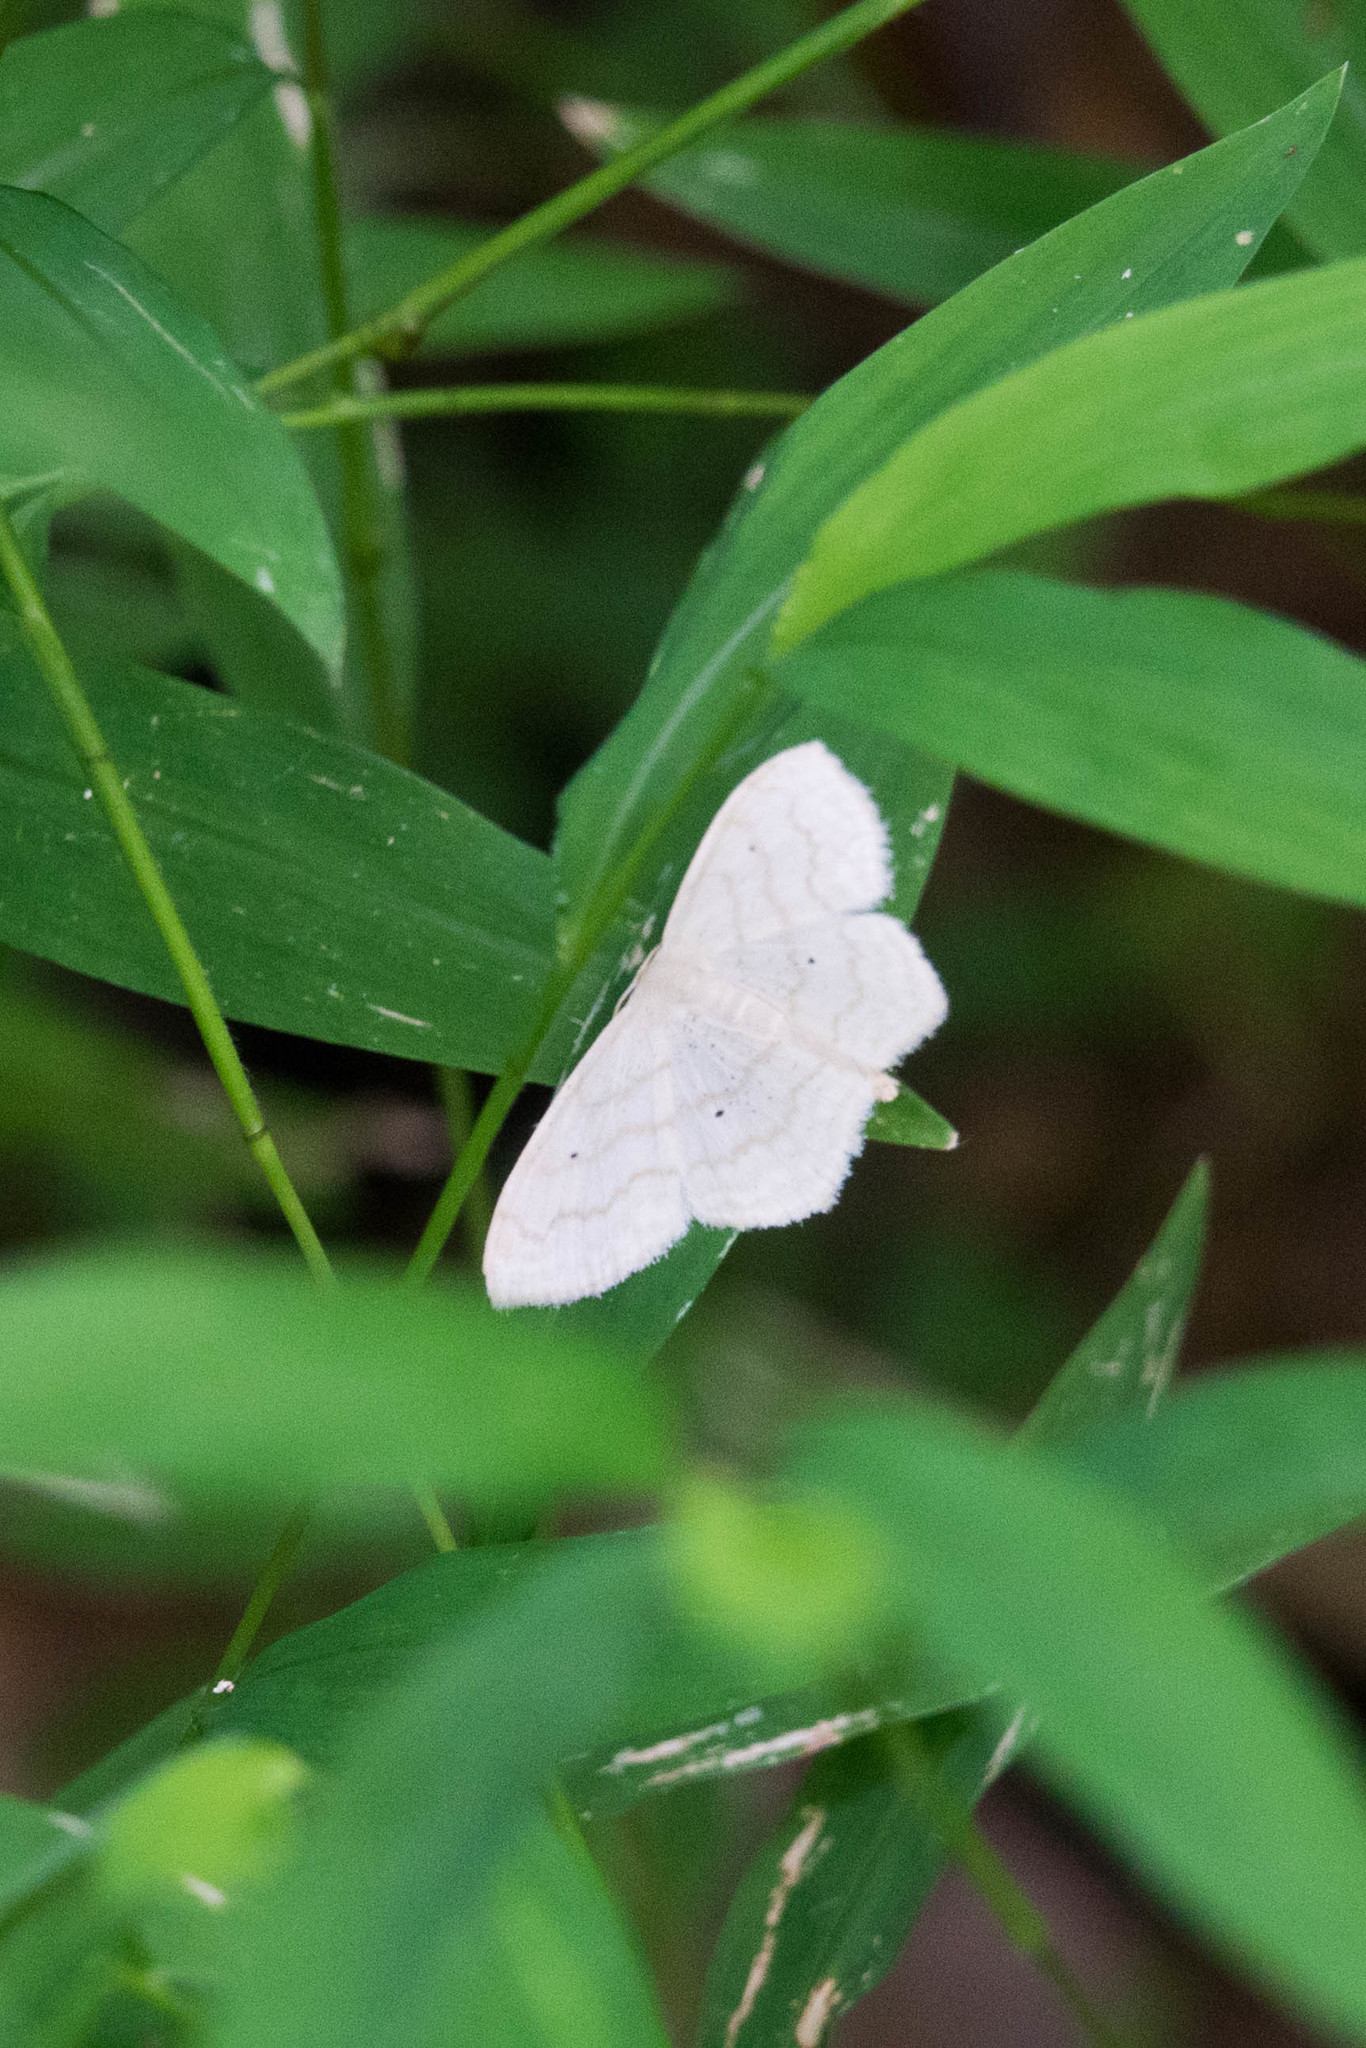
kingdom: Animalia
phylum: Arthropoda
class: Insecta
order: Lepidoptera
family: Geometridae
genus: Scopula
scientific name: Scopula limboundata
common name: Large lace border
